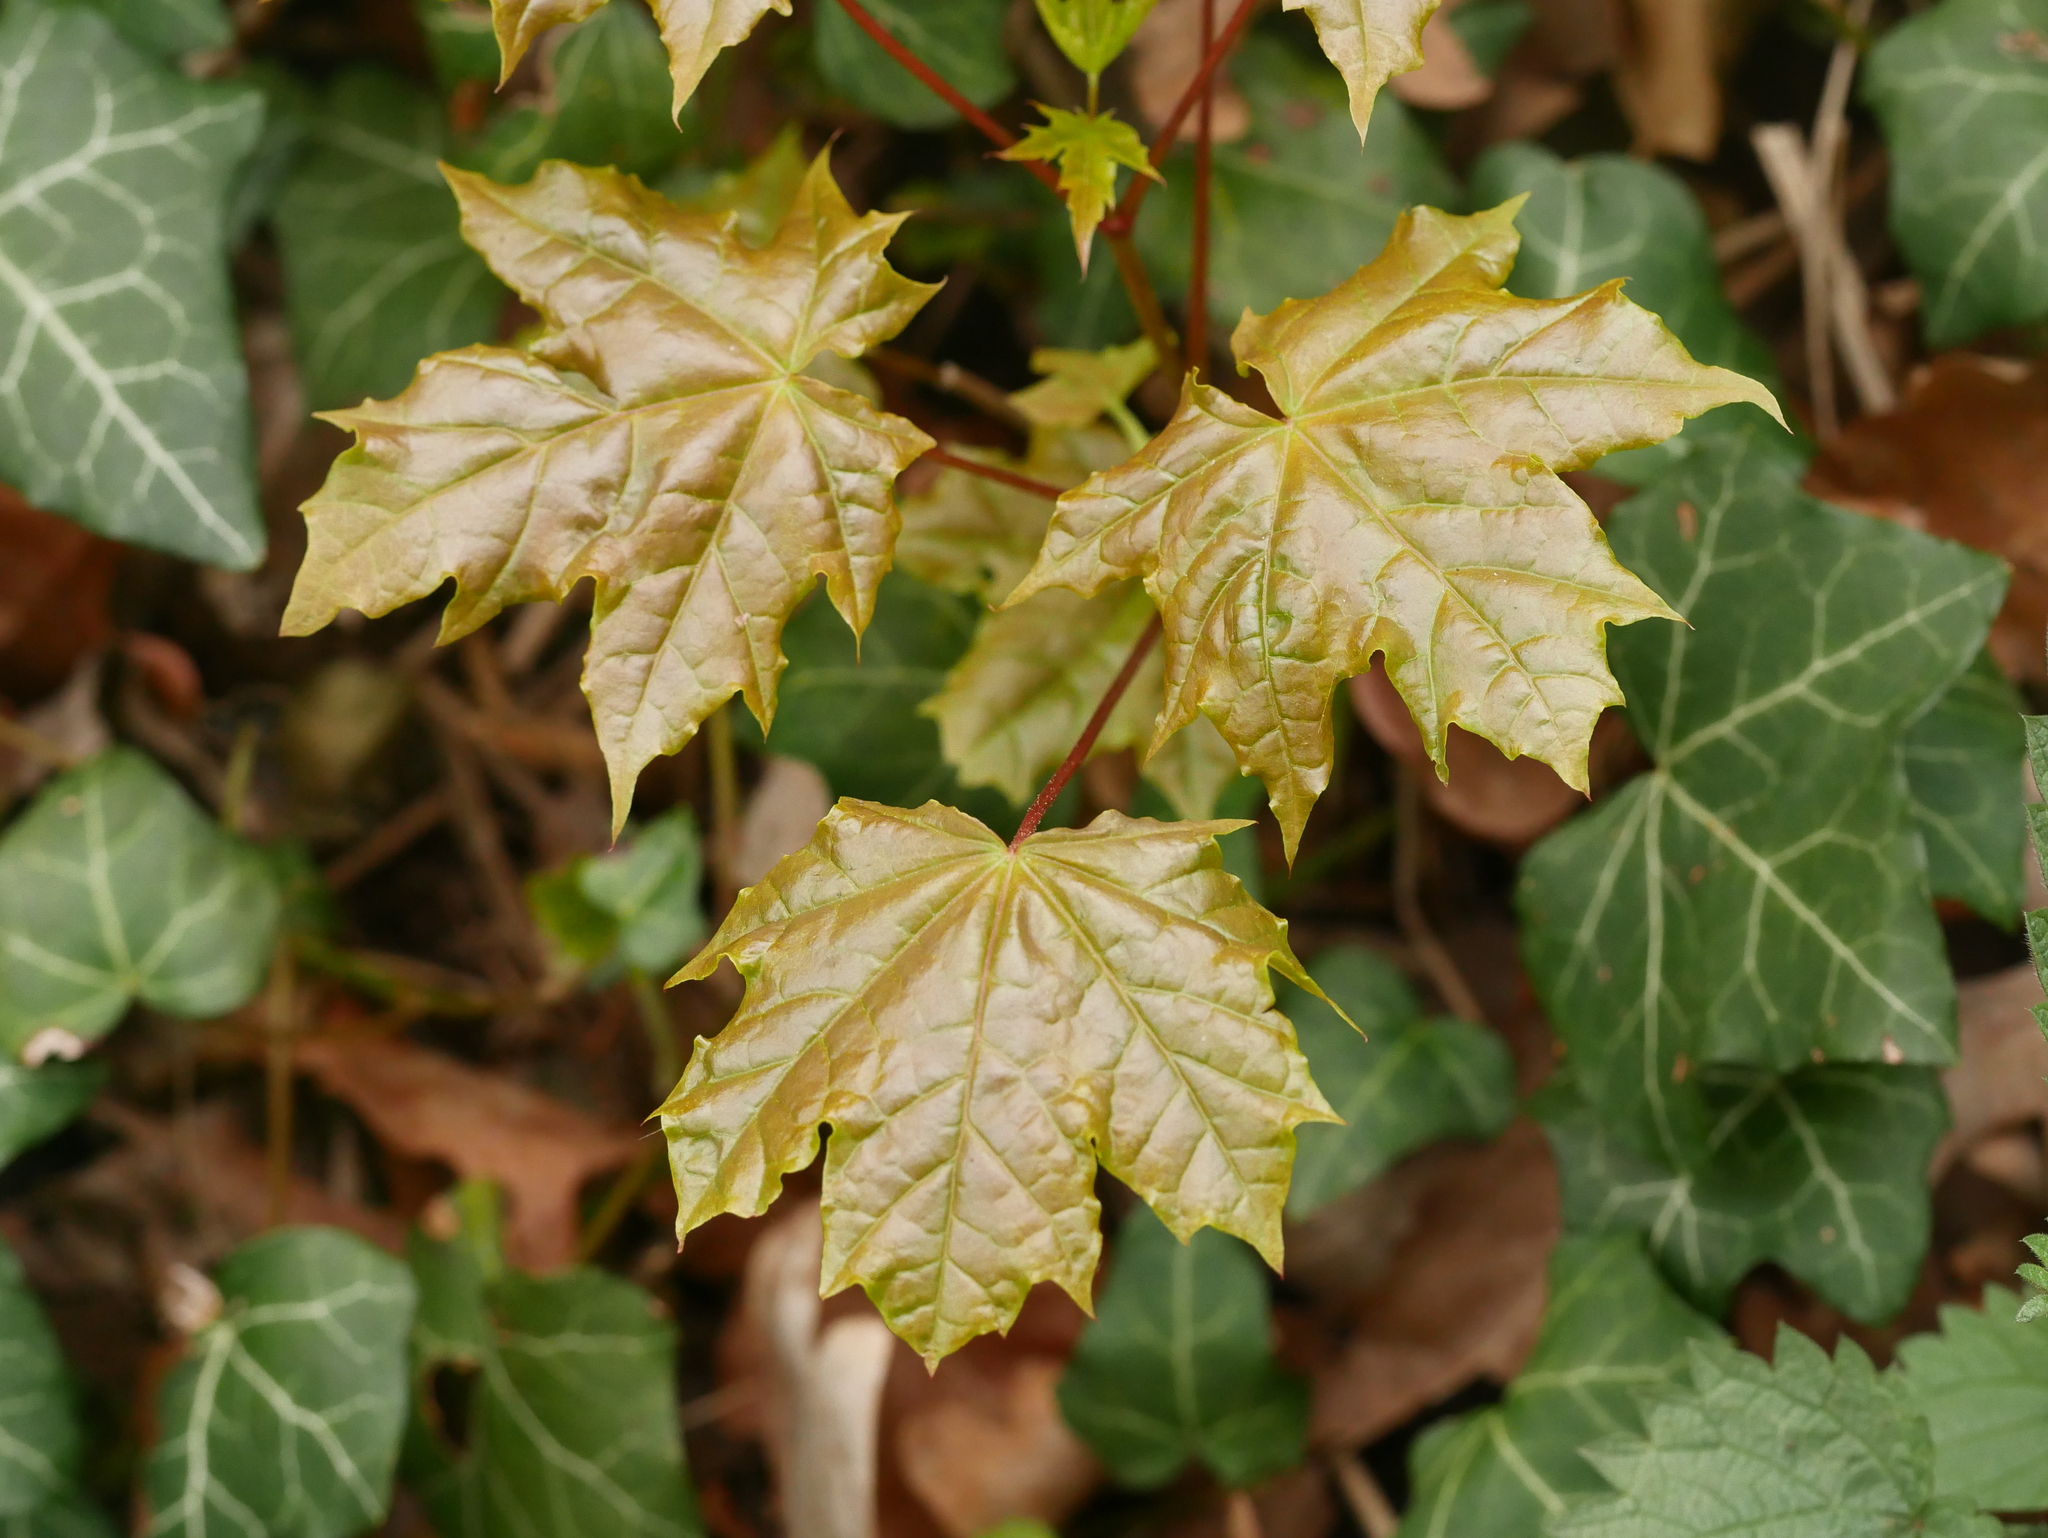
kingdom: Plantae
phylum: Tracheophyta
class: Magnoliopsida
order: Sapindales
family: Sapindaceae
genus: Acer
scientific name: Acer platanoides
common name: Norway maple
